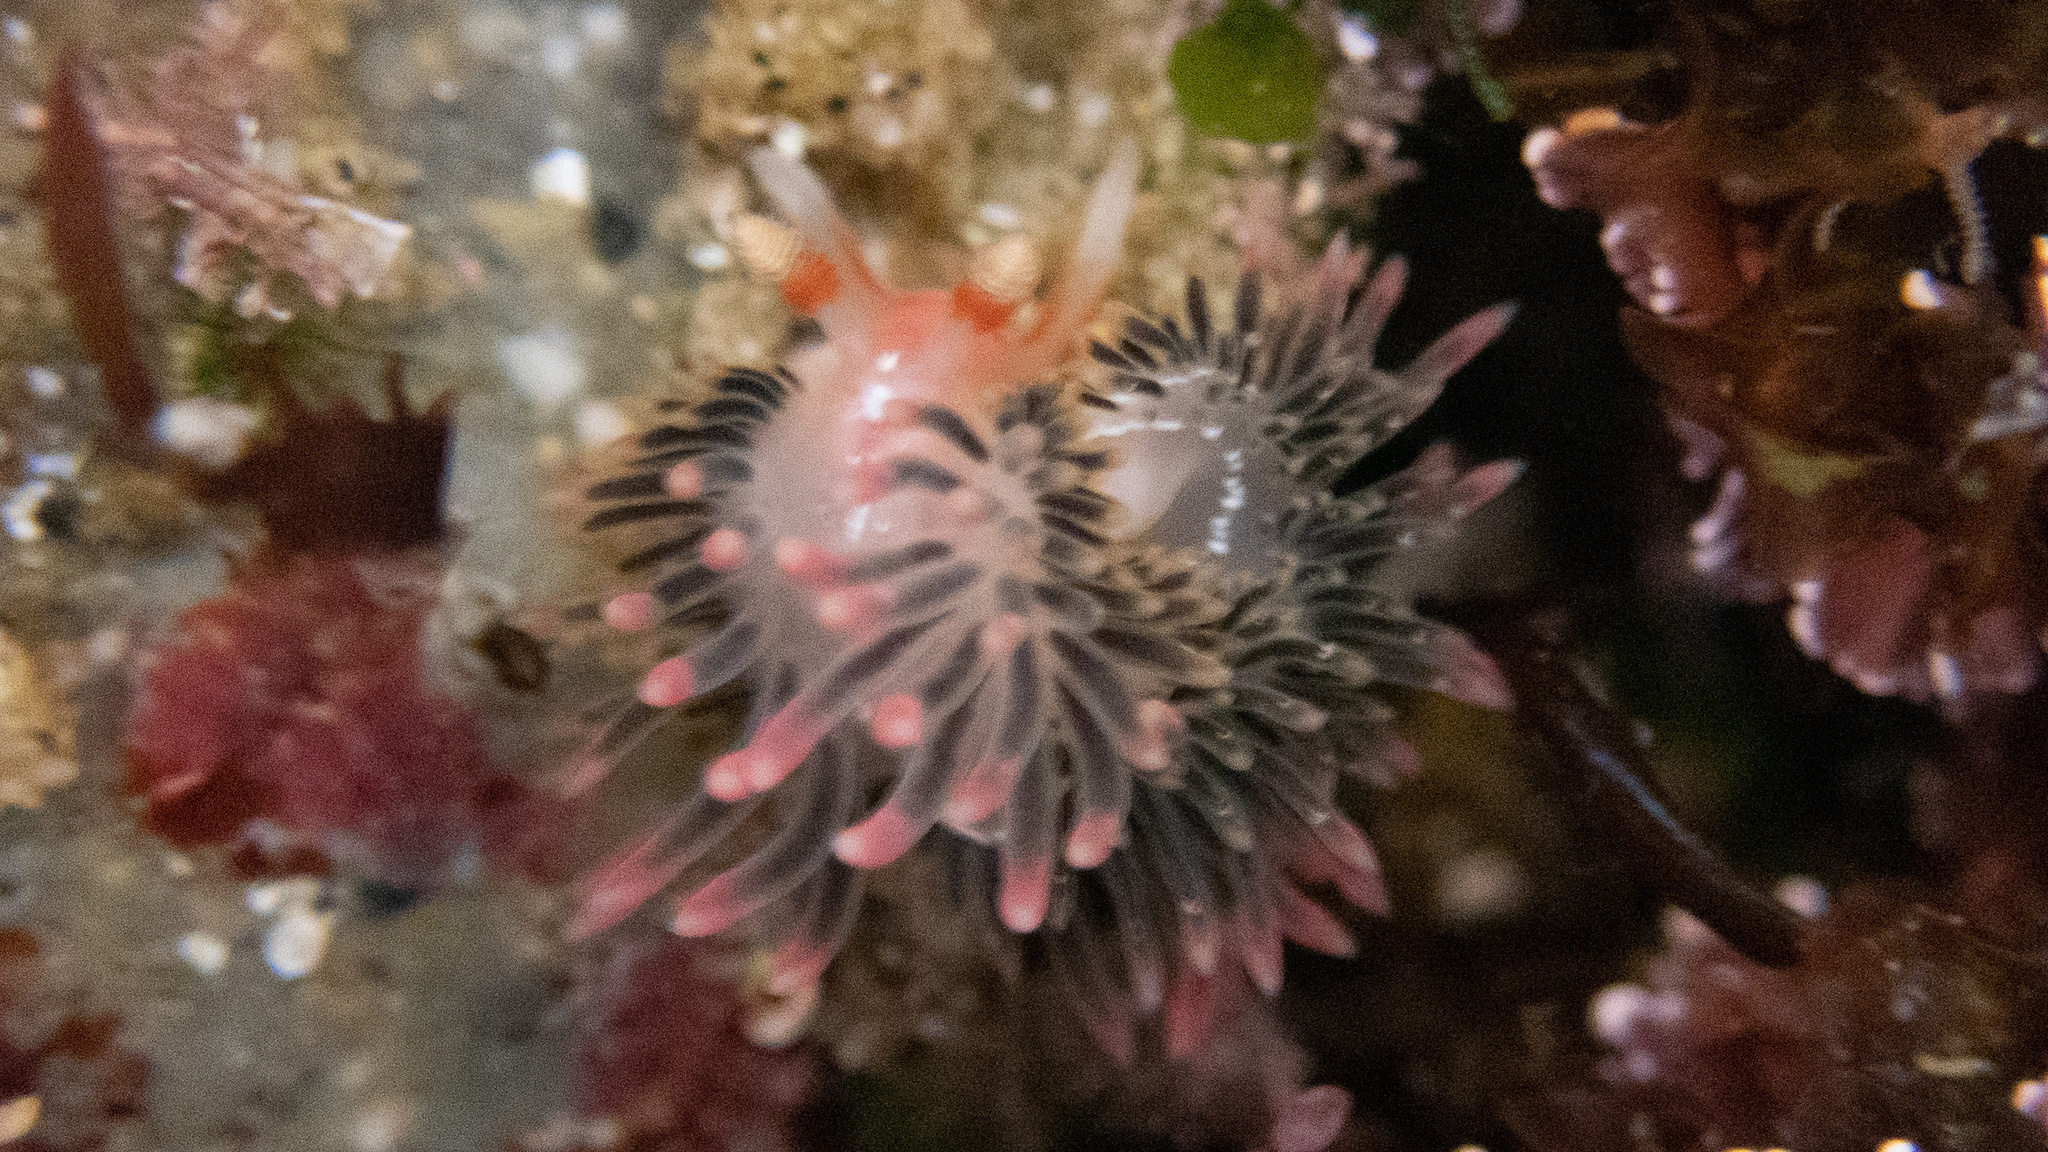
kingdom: Animalia
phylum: Mollusca
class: Gastropoda
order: Nudibranchia
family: Facelinidae
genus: Phidiana
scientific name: Phidiana hiltoni
